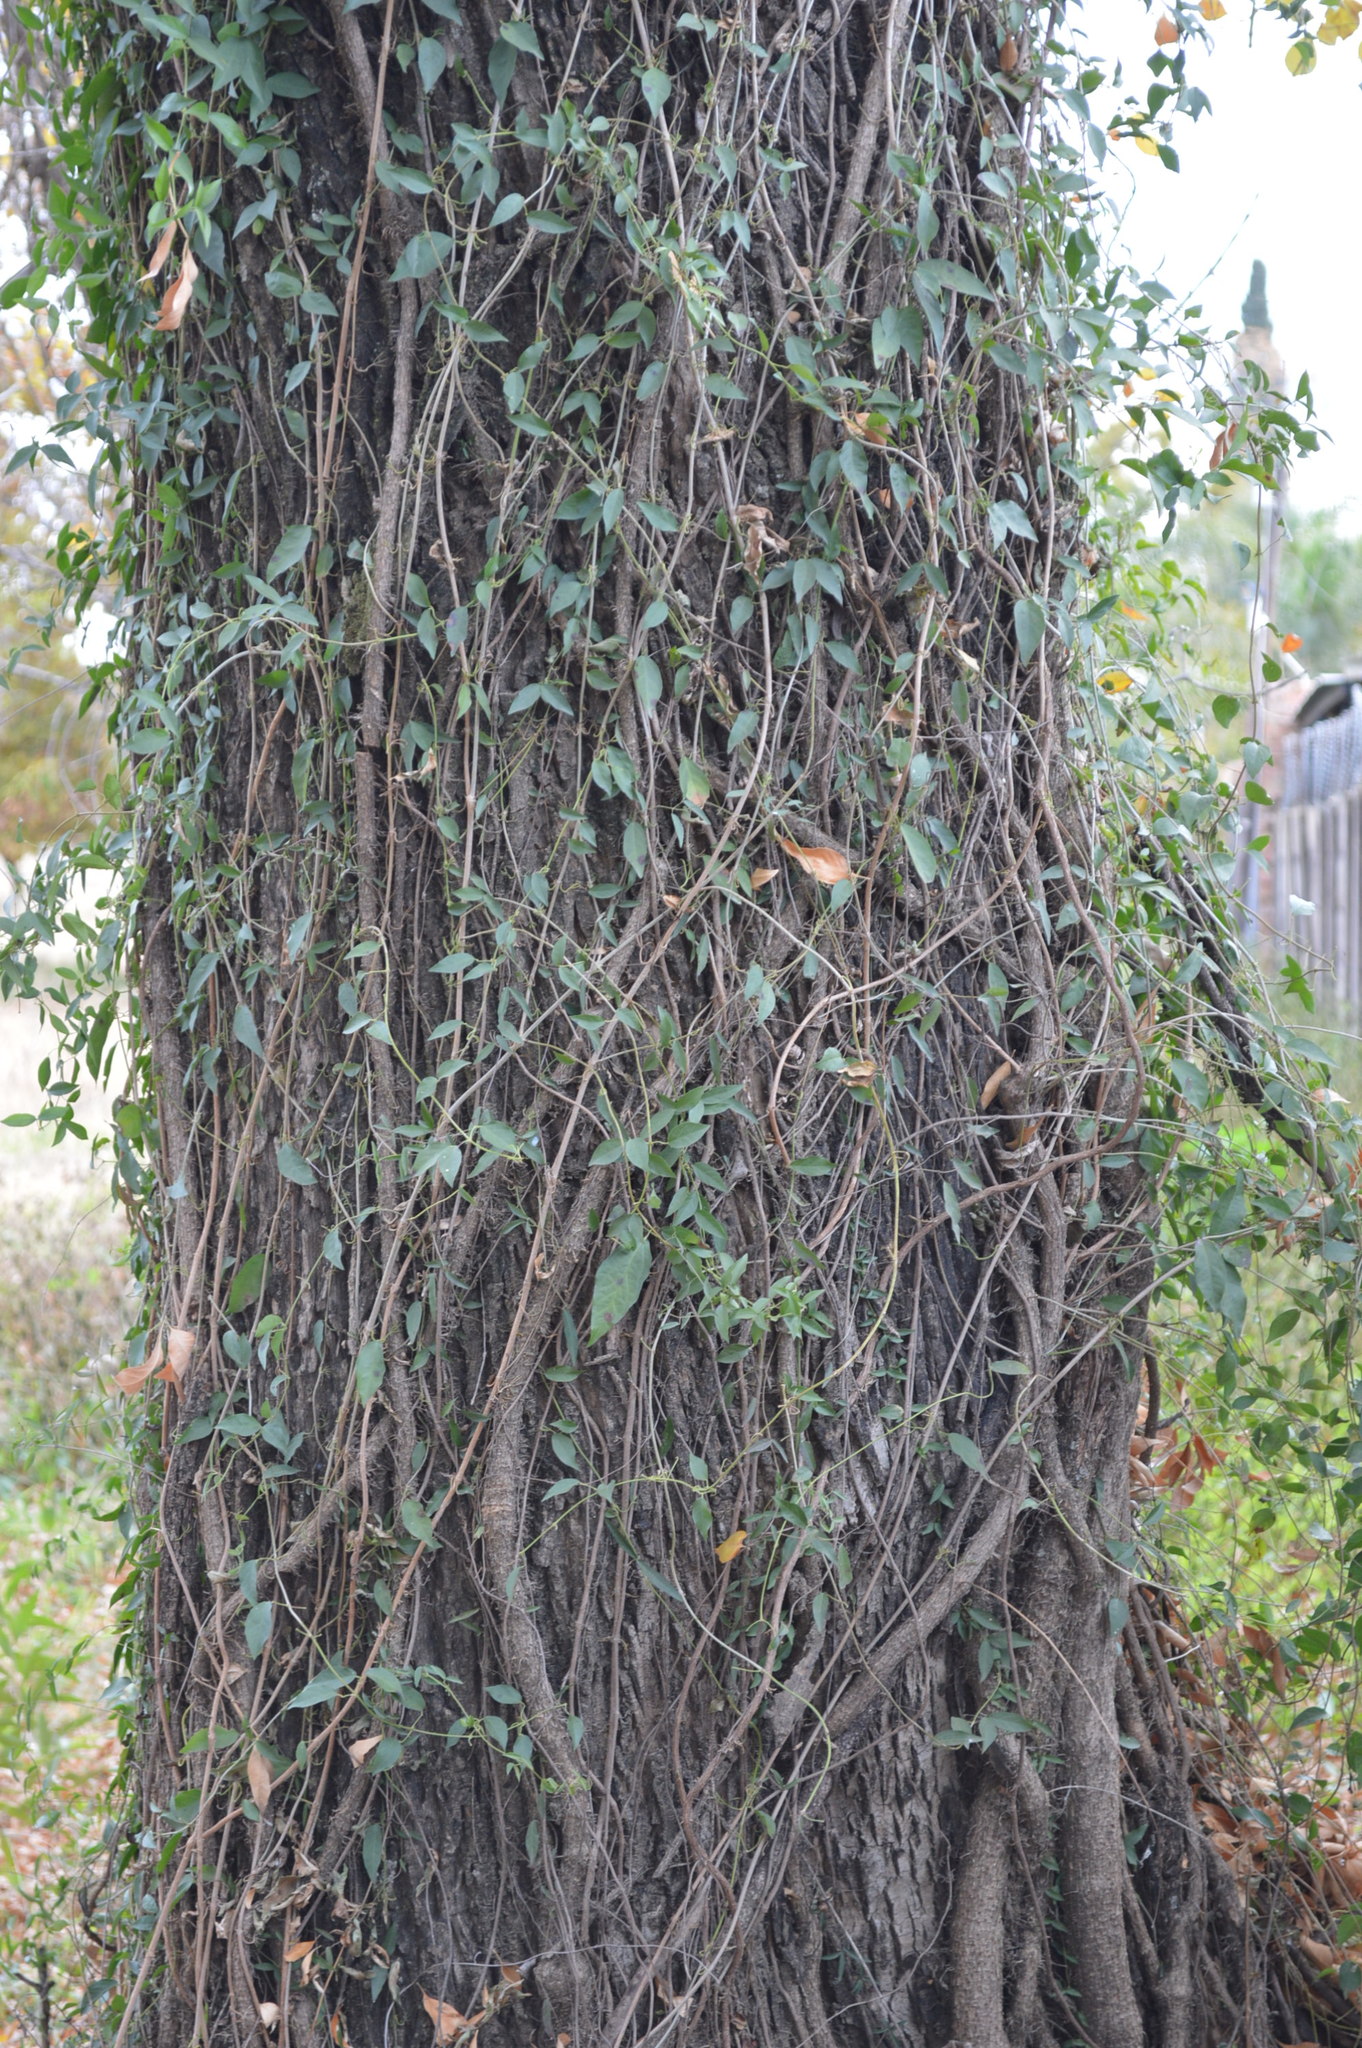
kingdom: Plantae
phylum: Tracheophyta
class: Magnoliopsida
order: Lamiales
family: Bignoniaceae
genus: Dolichandra
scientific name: Dolichandra unguis-cati
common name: Catclaw vine
